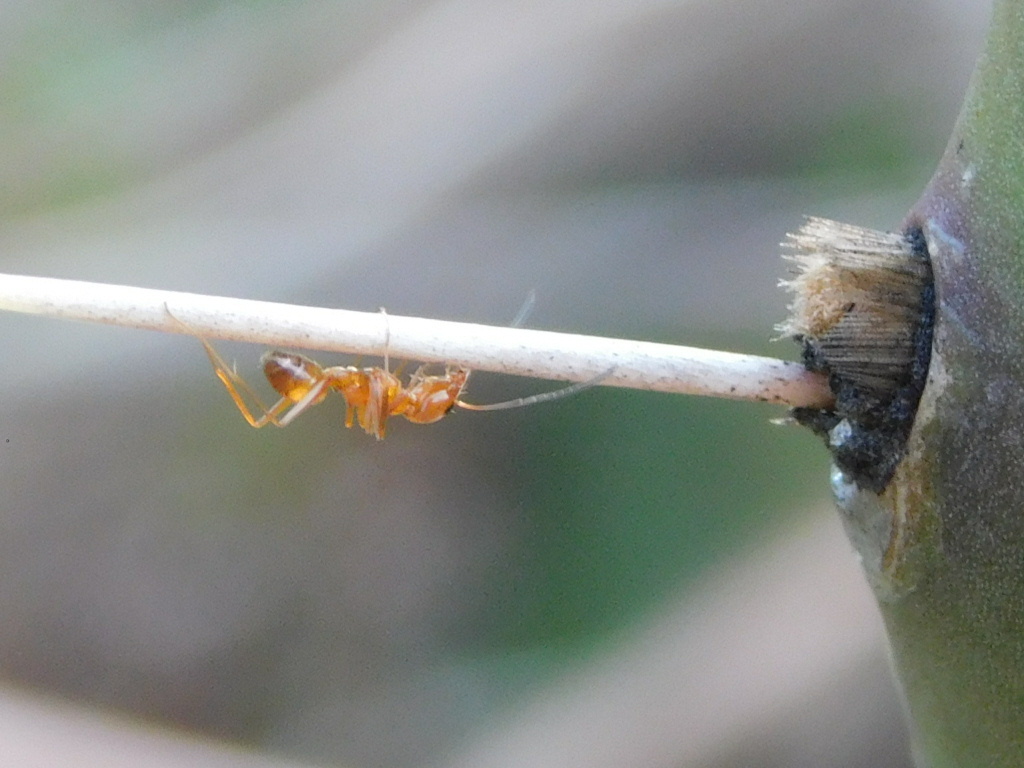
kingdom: Animalia
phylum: Arthropoda
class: Insecta
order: Hymenoptera
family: Formicidae
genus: Dorymyrmex
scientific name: Dorymyrmex bureni
